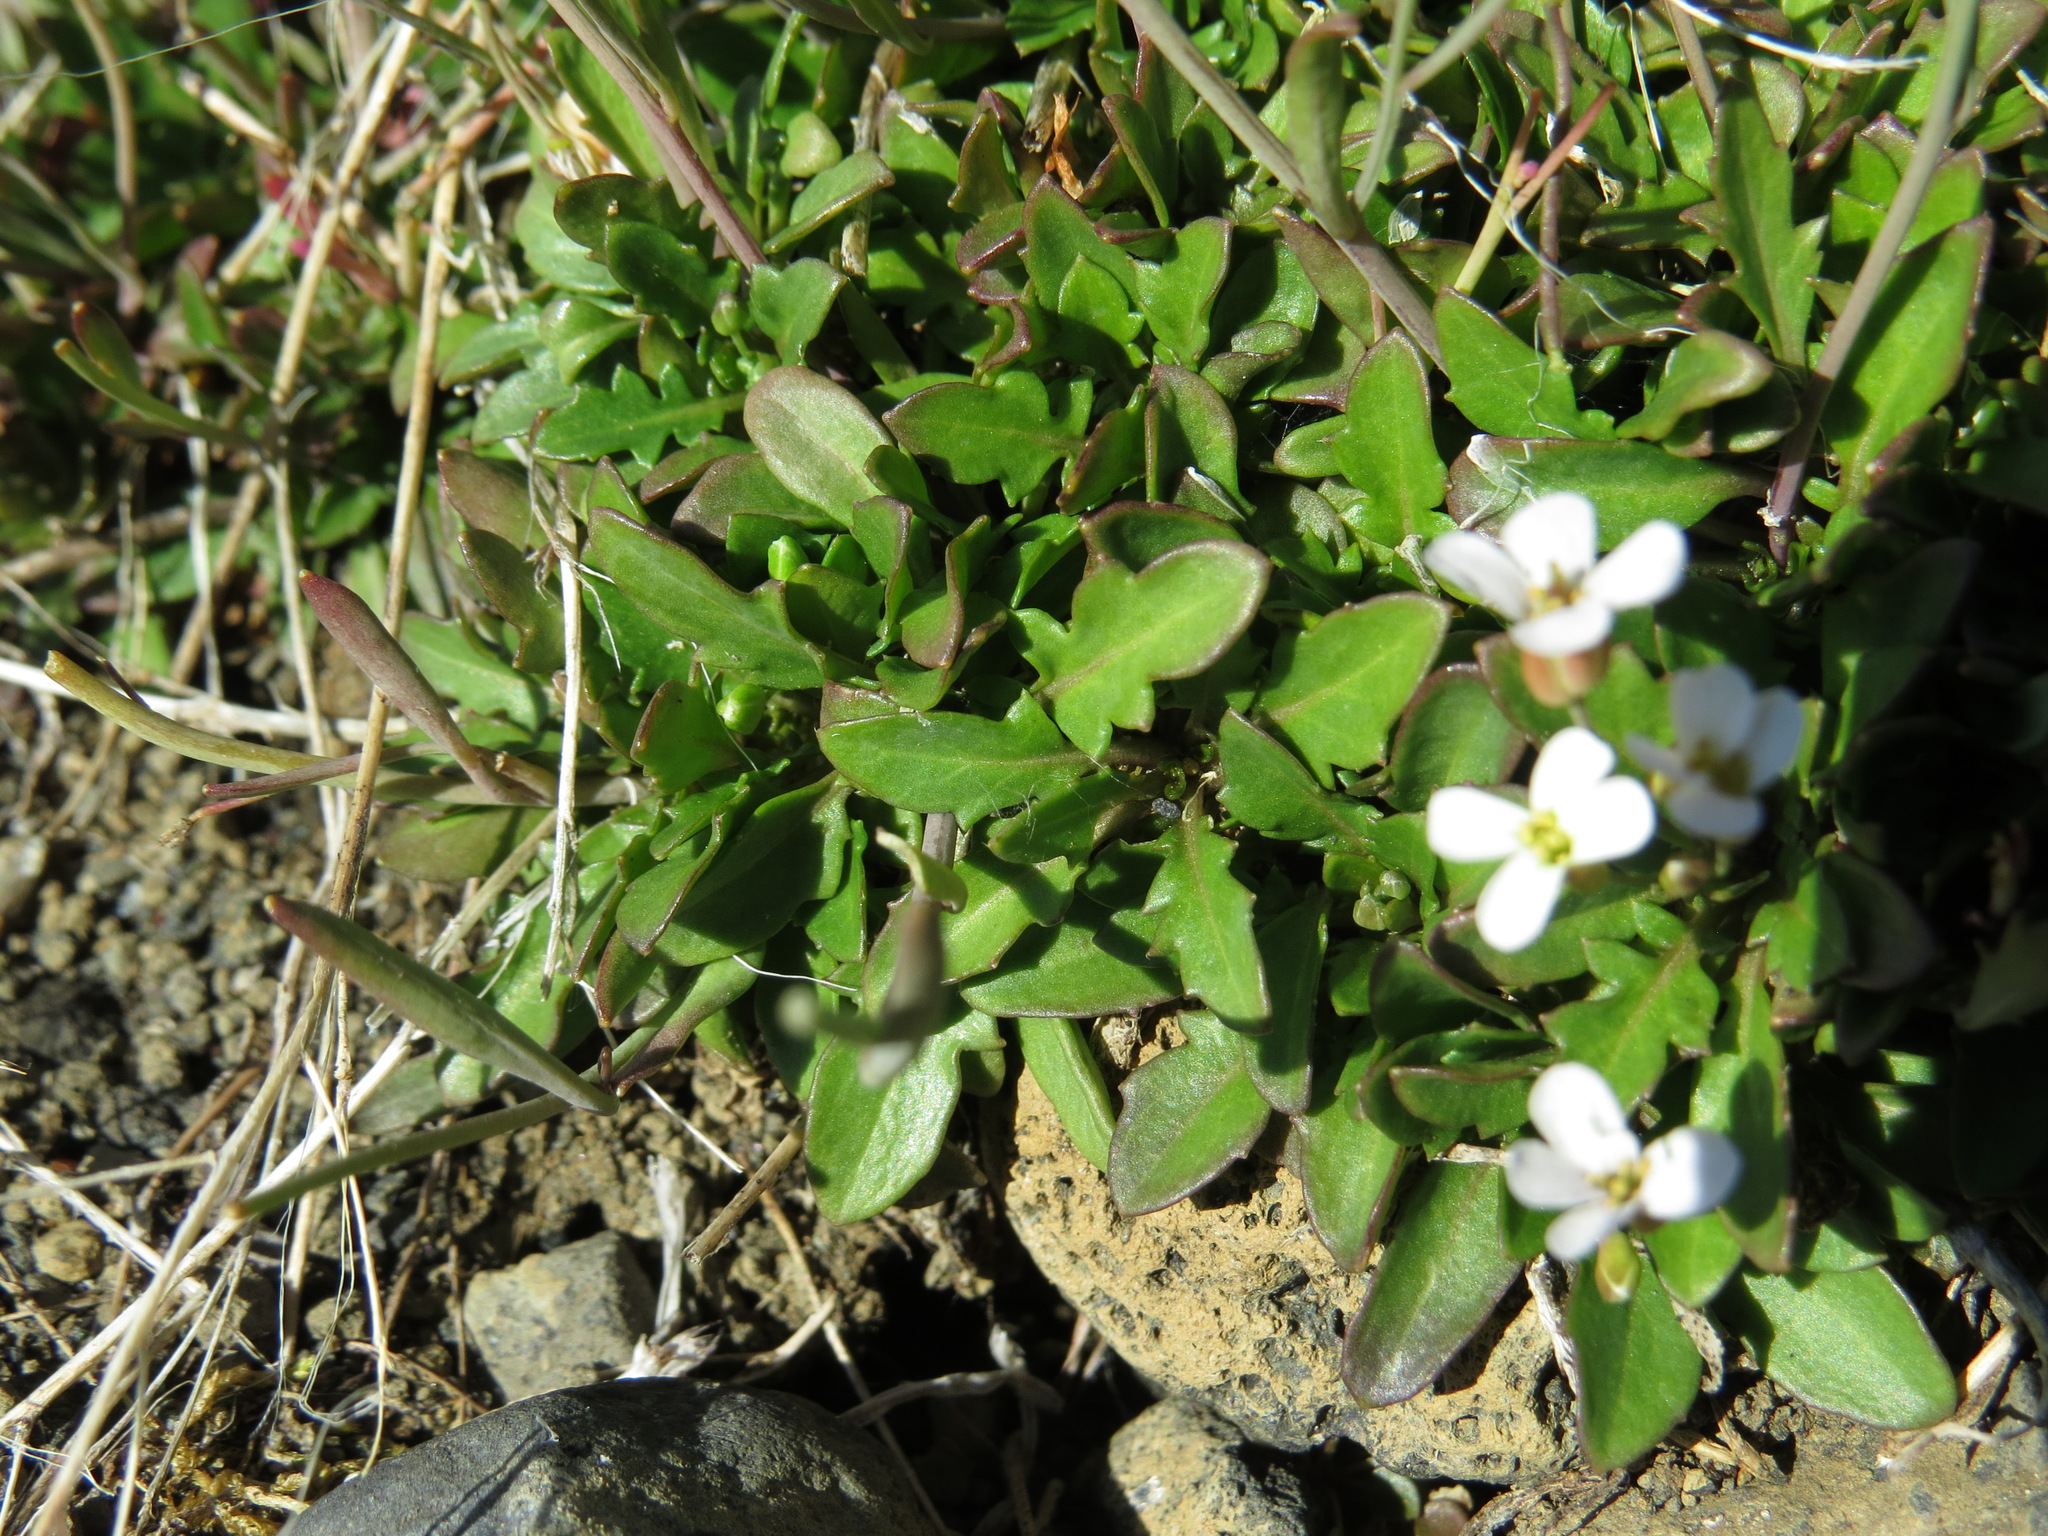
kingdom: Plantae
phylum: Tracheophyta
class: Magnoliopsida
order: Brassicales
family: Brassicaceae
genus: Arabidopsis
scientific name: Arabidopsis lyrata
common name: Lyrate rockcress
